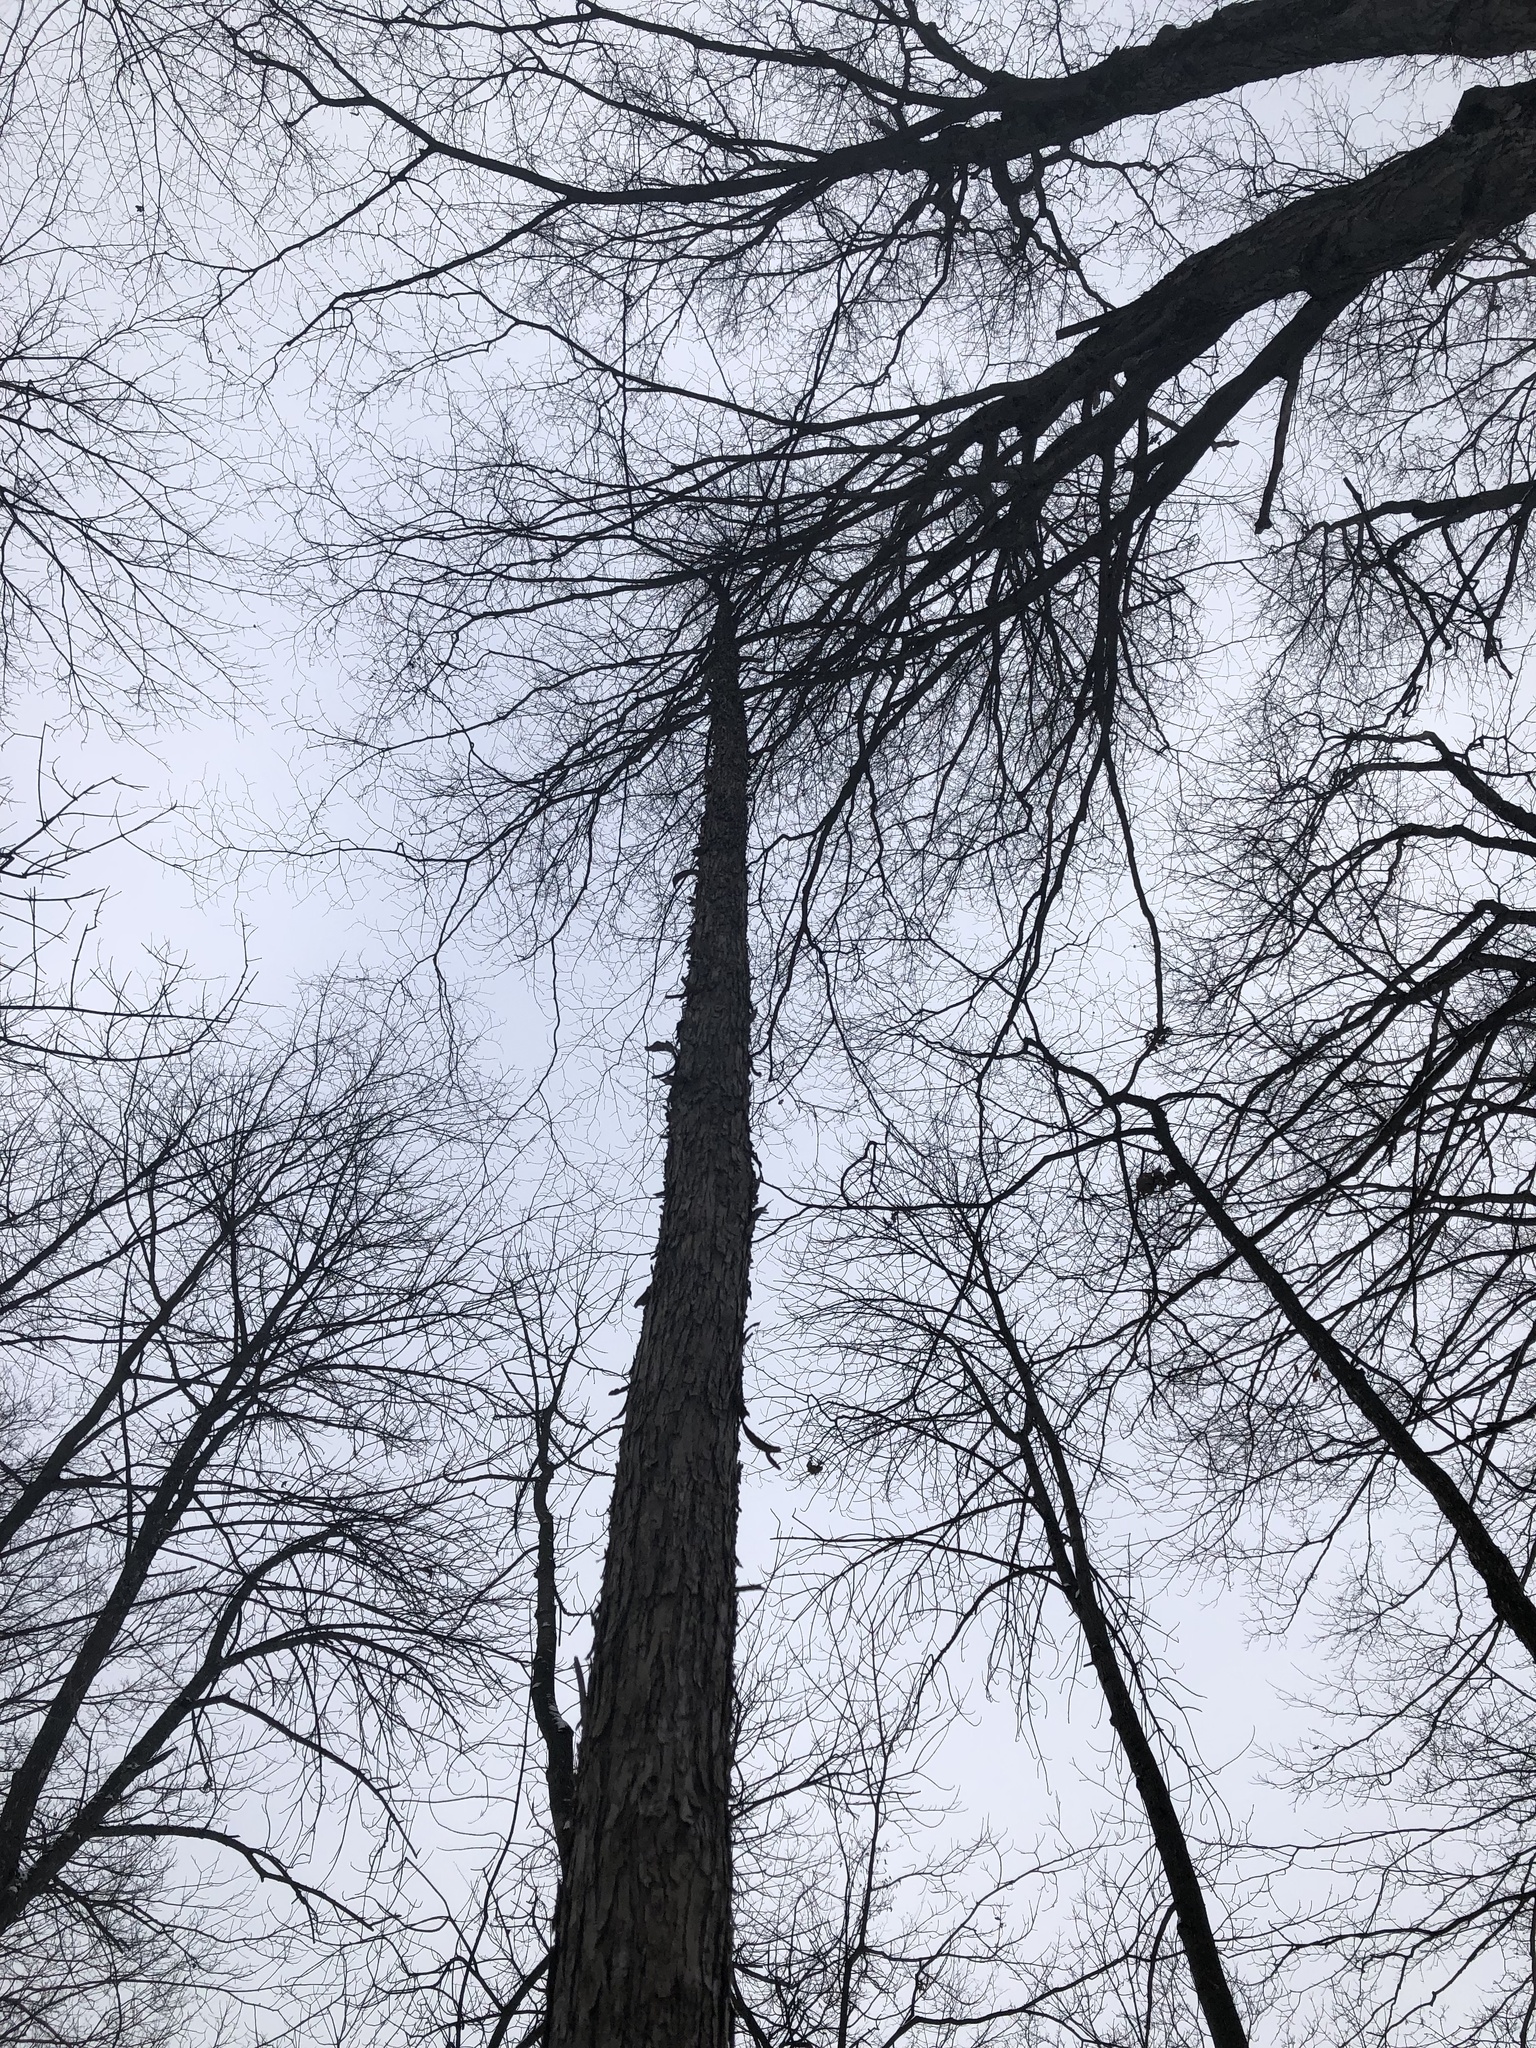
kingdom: Plantae
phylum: Tracheophyta
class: Magnoliopsida
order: Fagales
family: Betulaceae
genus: Ostrya
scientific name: Ostrya virginiana
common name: Ironwood
